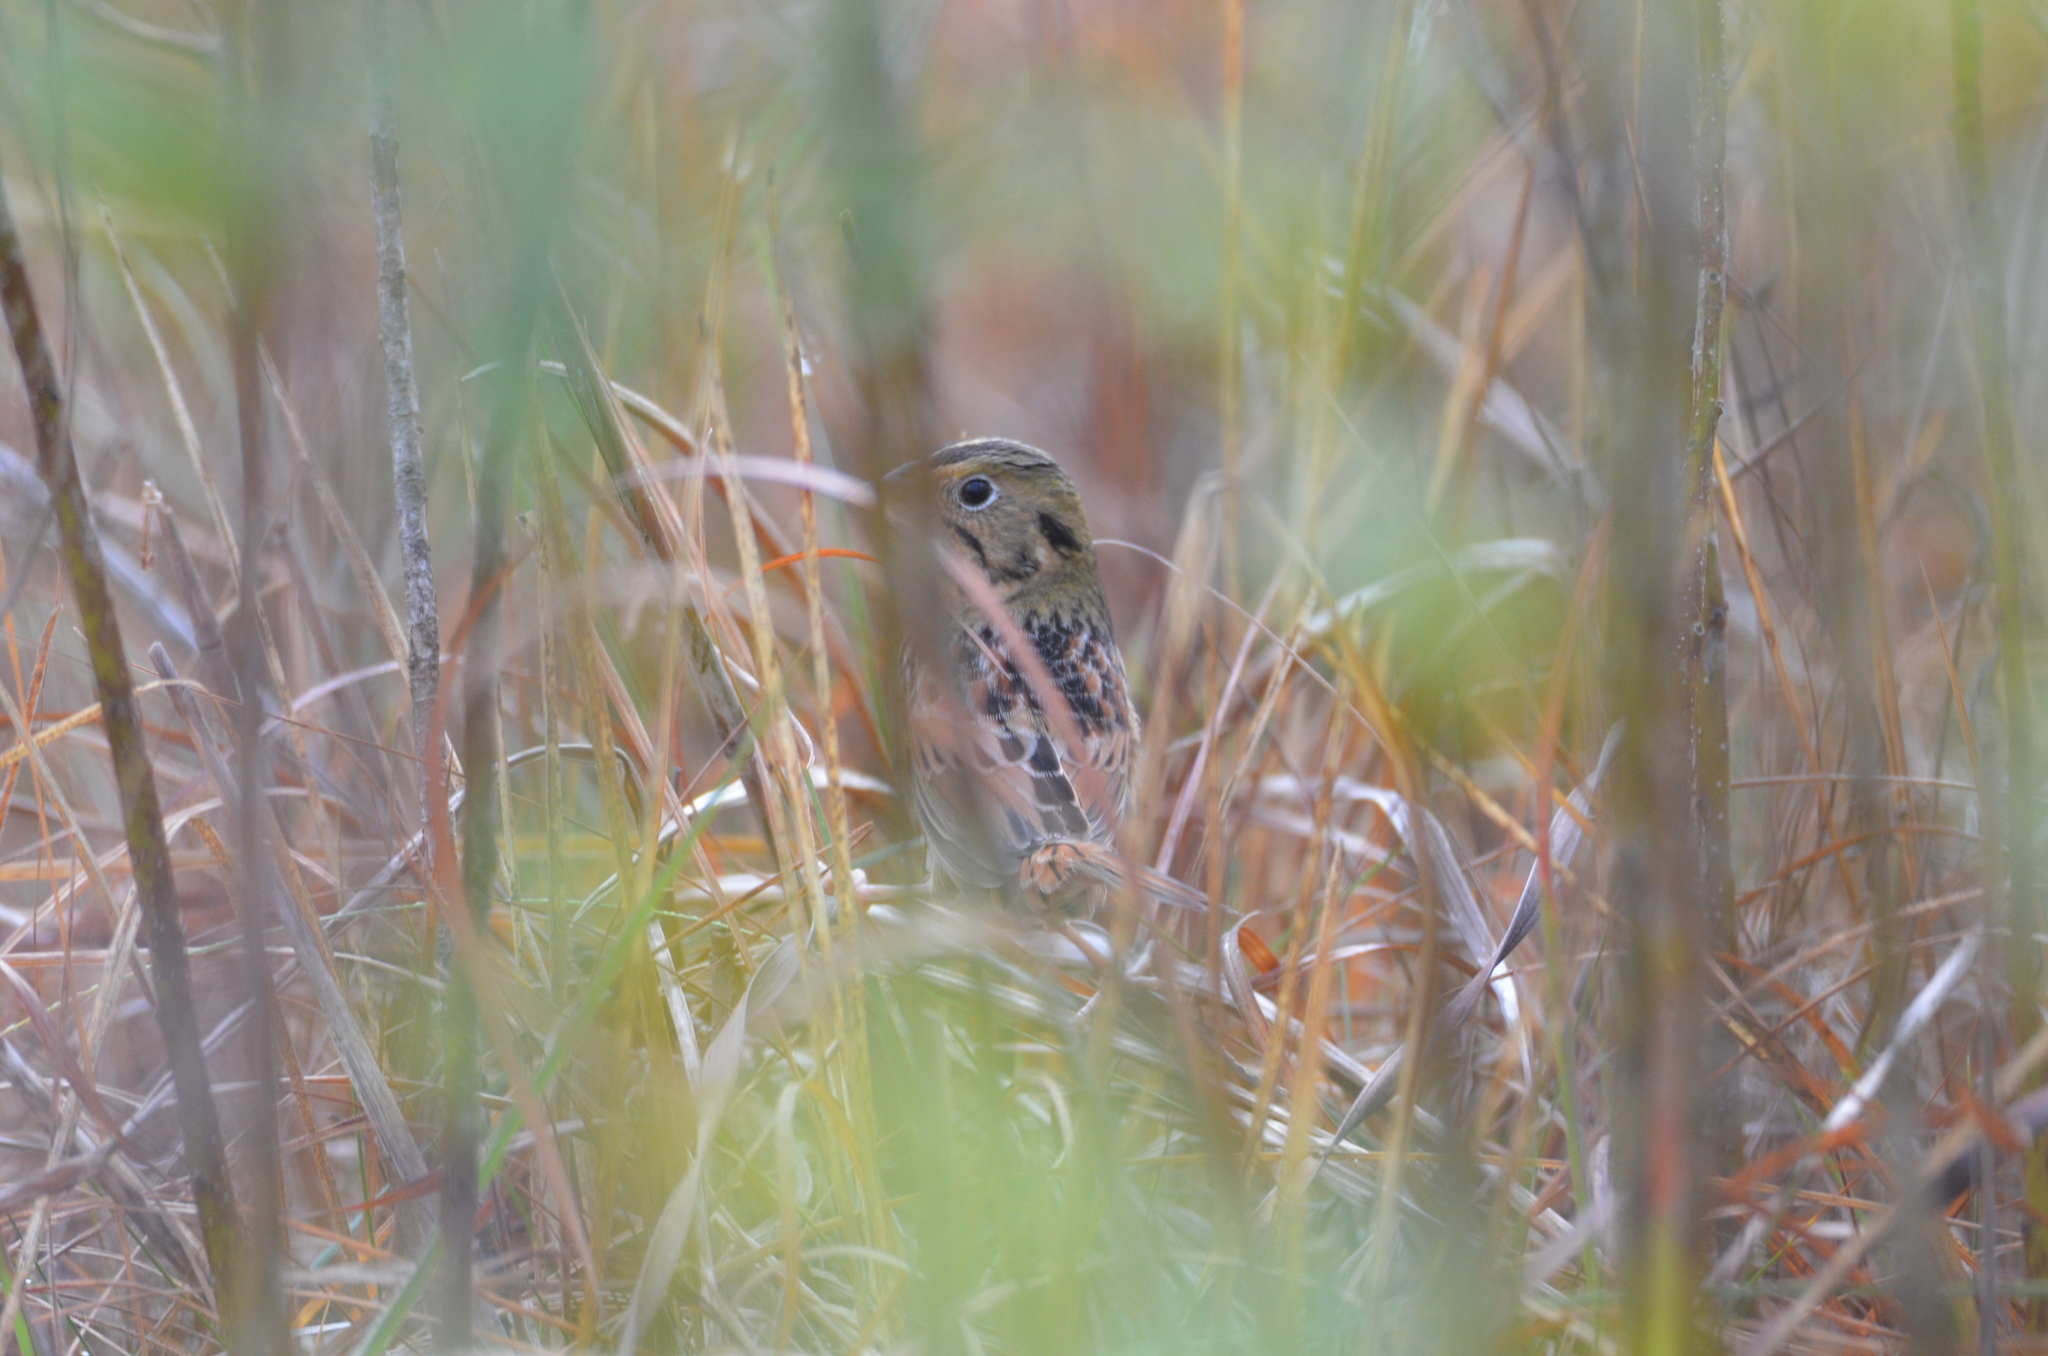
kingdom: Animalia
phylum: Chordata
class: Aves
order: Passeriformes
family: Passerellidae
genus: Centronyx
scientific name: Centronyx henslowii
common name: Henslow's sparrow
